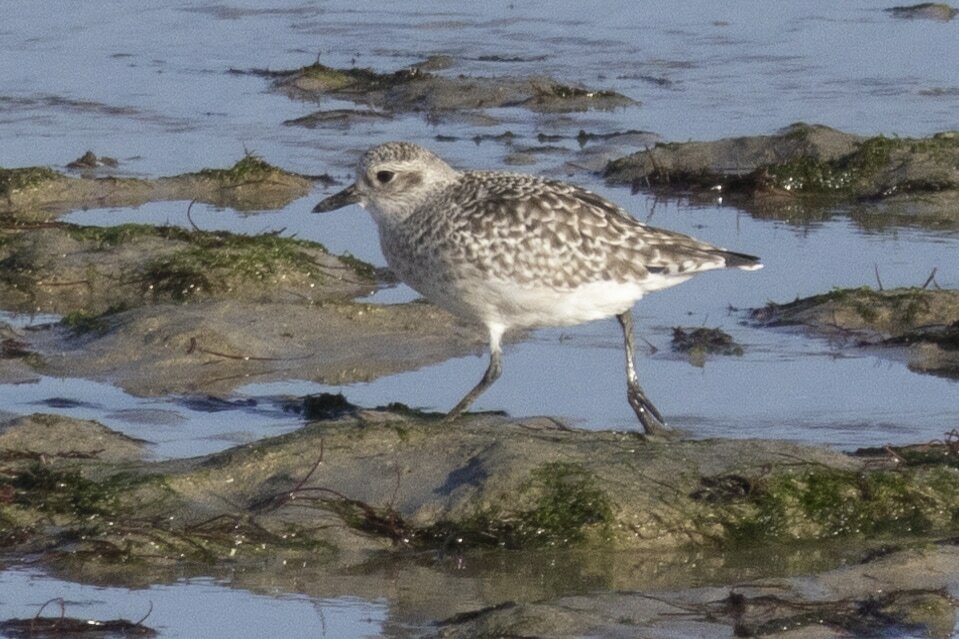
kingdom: Animalia
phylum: Chordata
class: Aves
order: Charadriiformes
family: Charadriidae
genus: Pluvialis
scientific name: Pluvialis squatarola
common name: Grey plover
